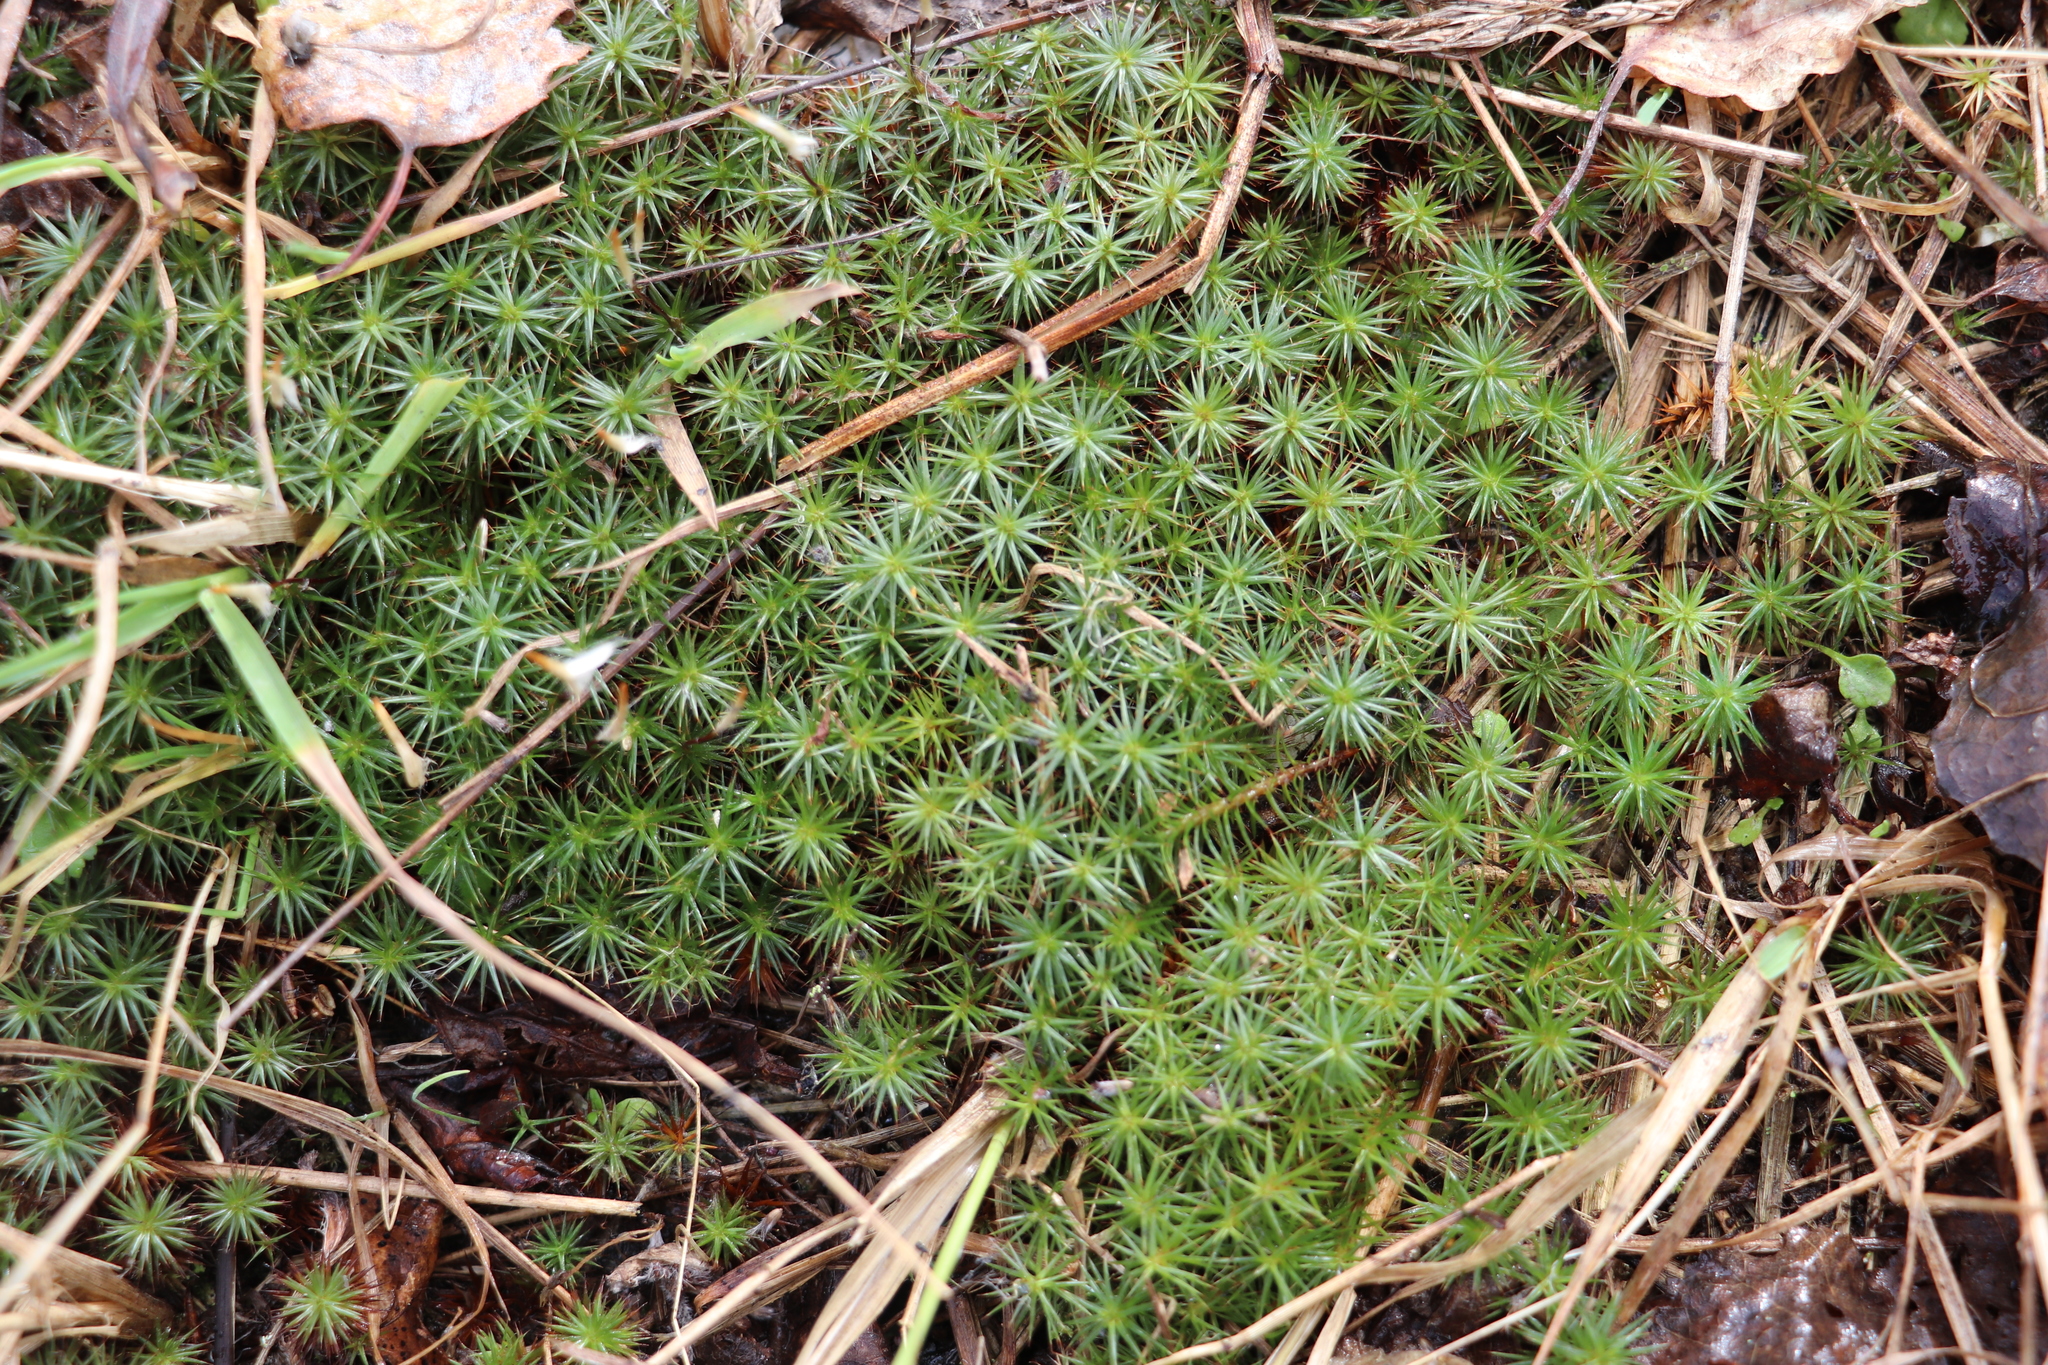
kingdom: Plantae
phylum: Bryophyta
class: Polytrichopsida
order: Polytrichales
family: Polytrichaceae
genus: Polytrichum
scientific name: Polytrichum juniperinum
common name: Juniper haircap moss
